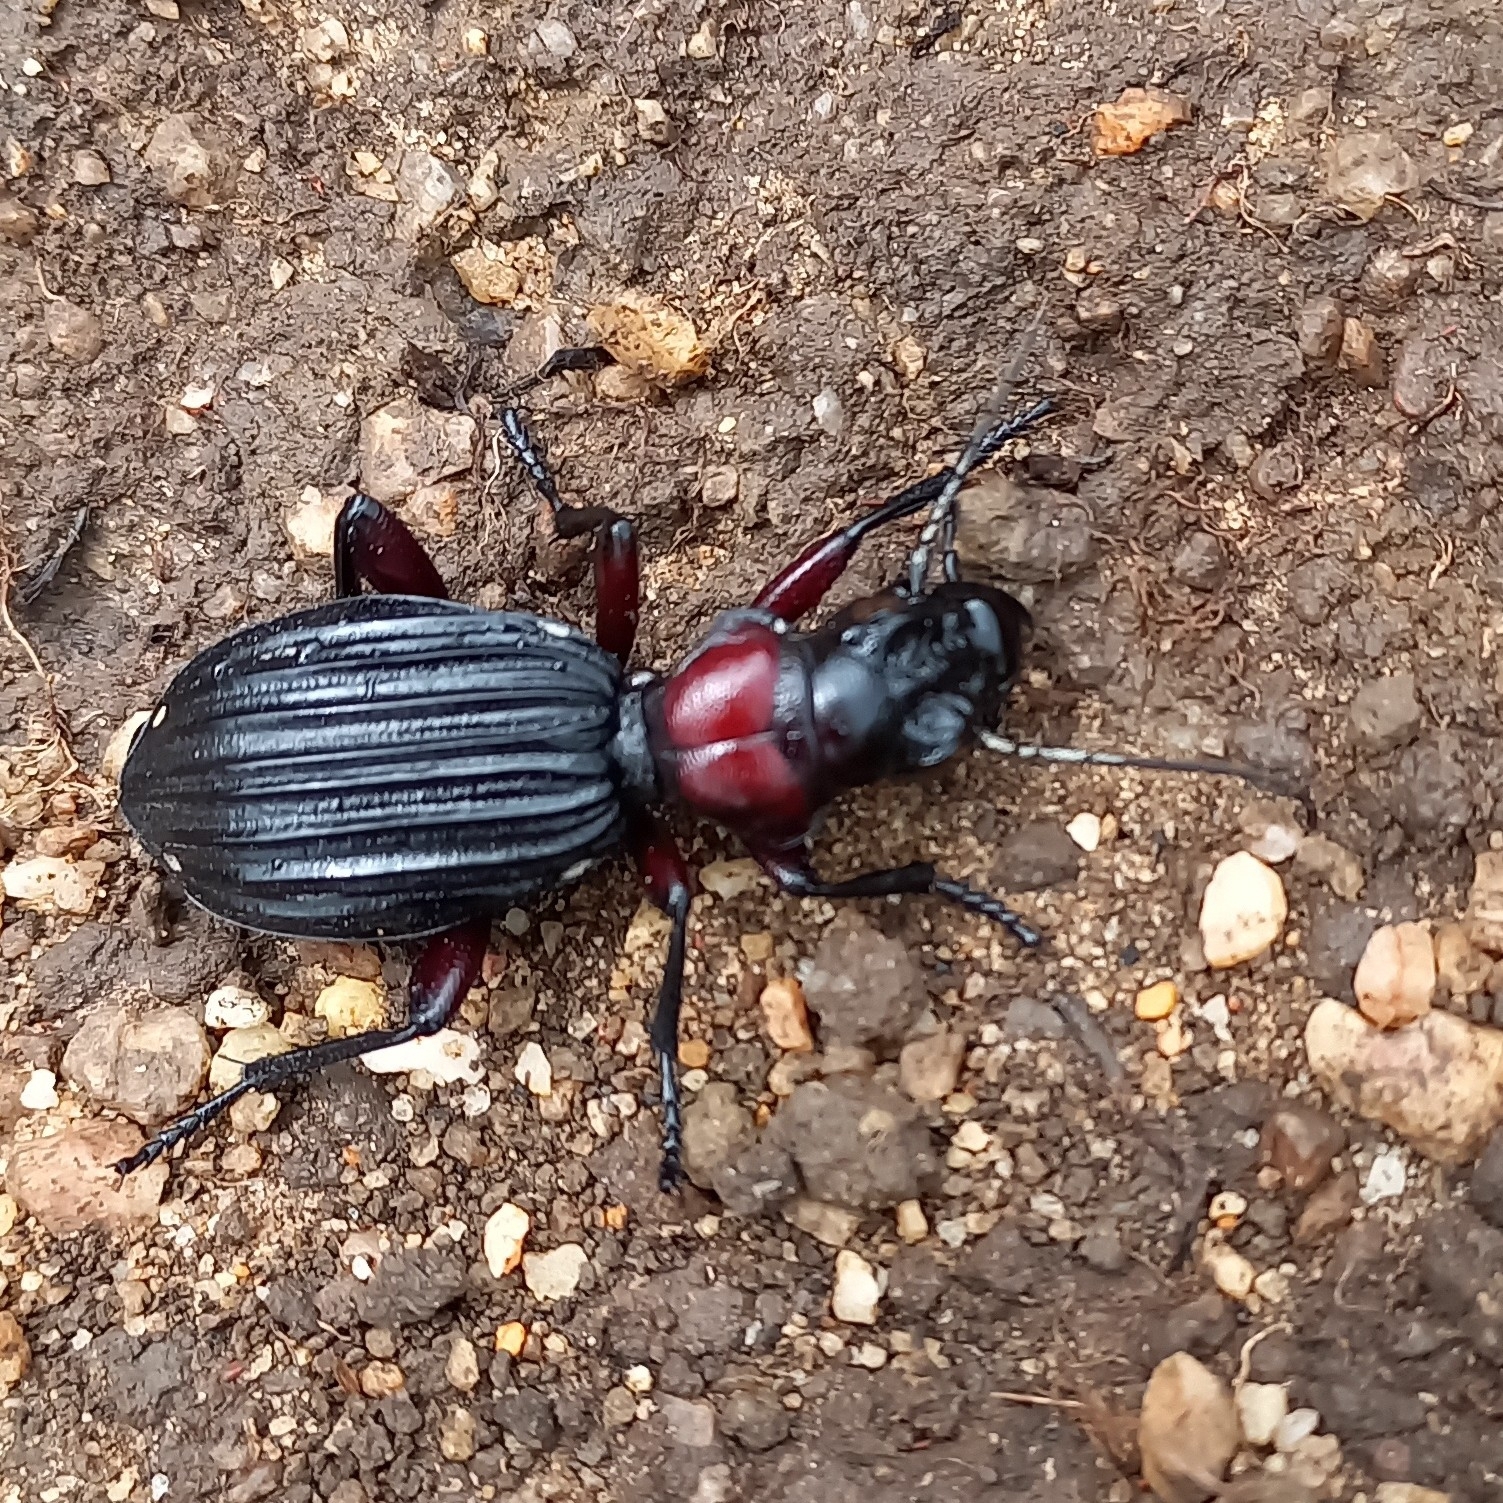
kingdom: Animalia
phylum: Arthropoda
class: Insecta
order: Coleoptera
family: Carabidae
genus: Anthia
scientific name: Anthia decemguttata
